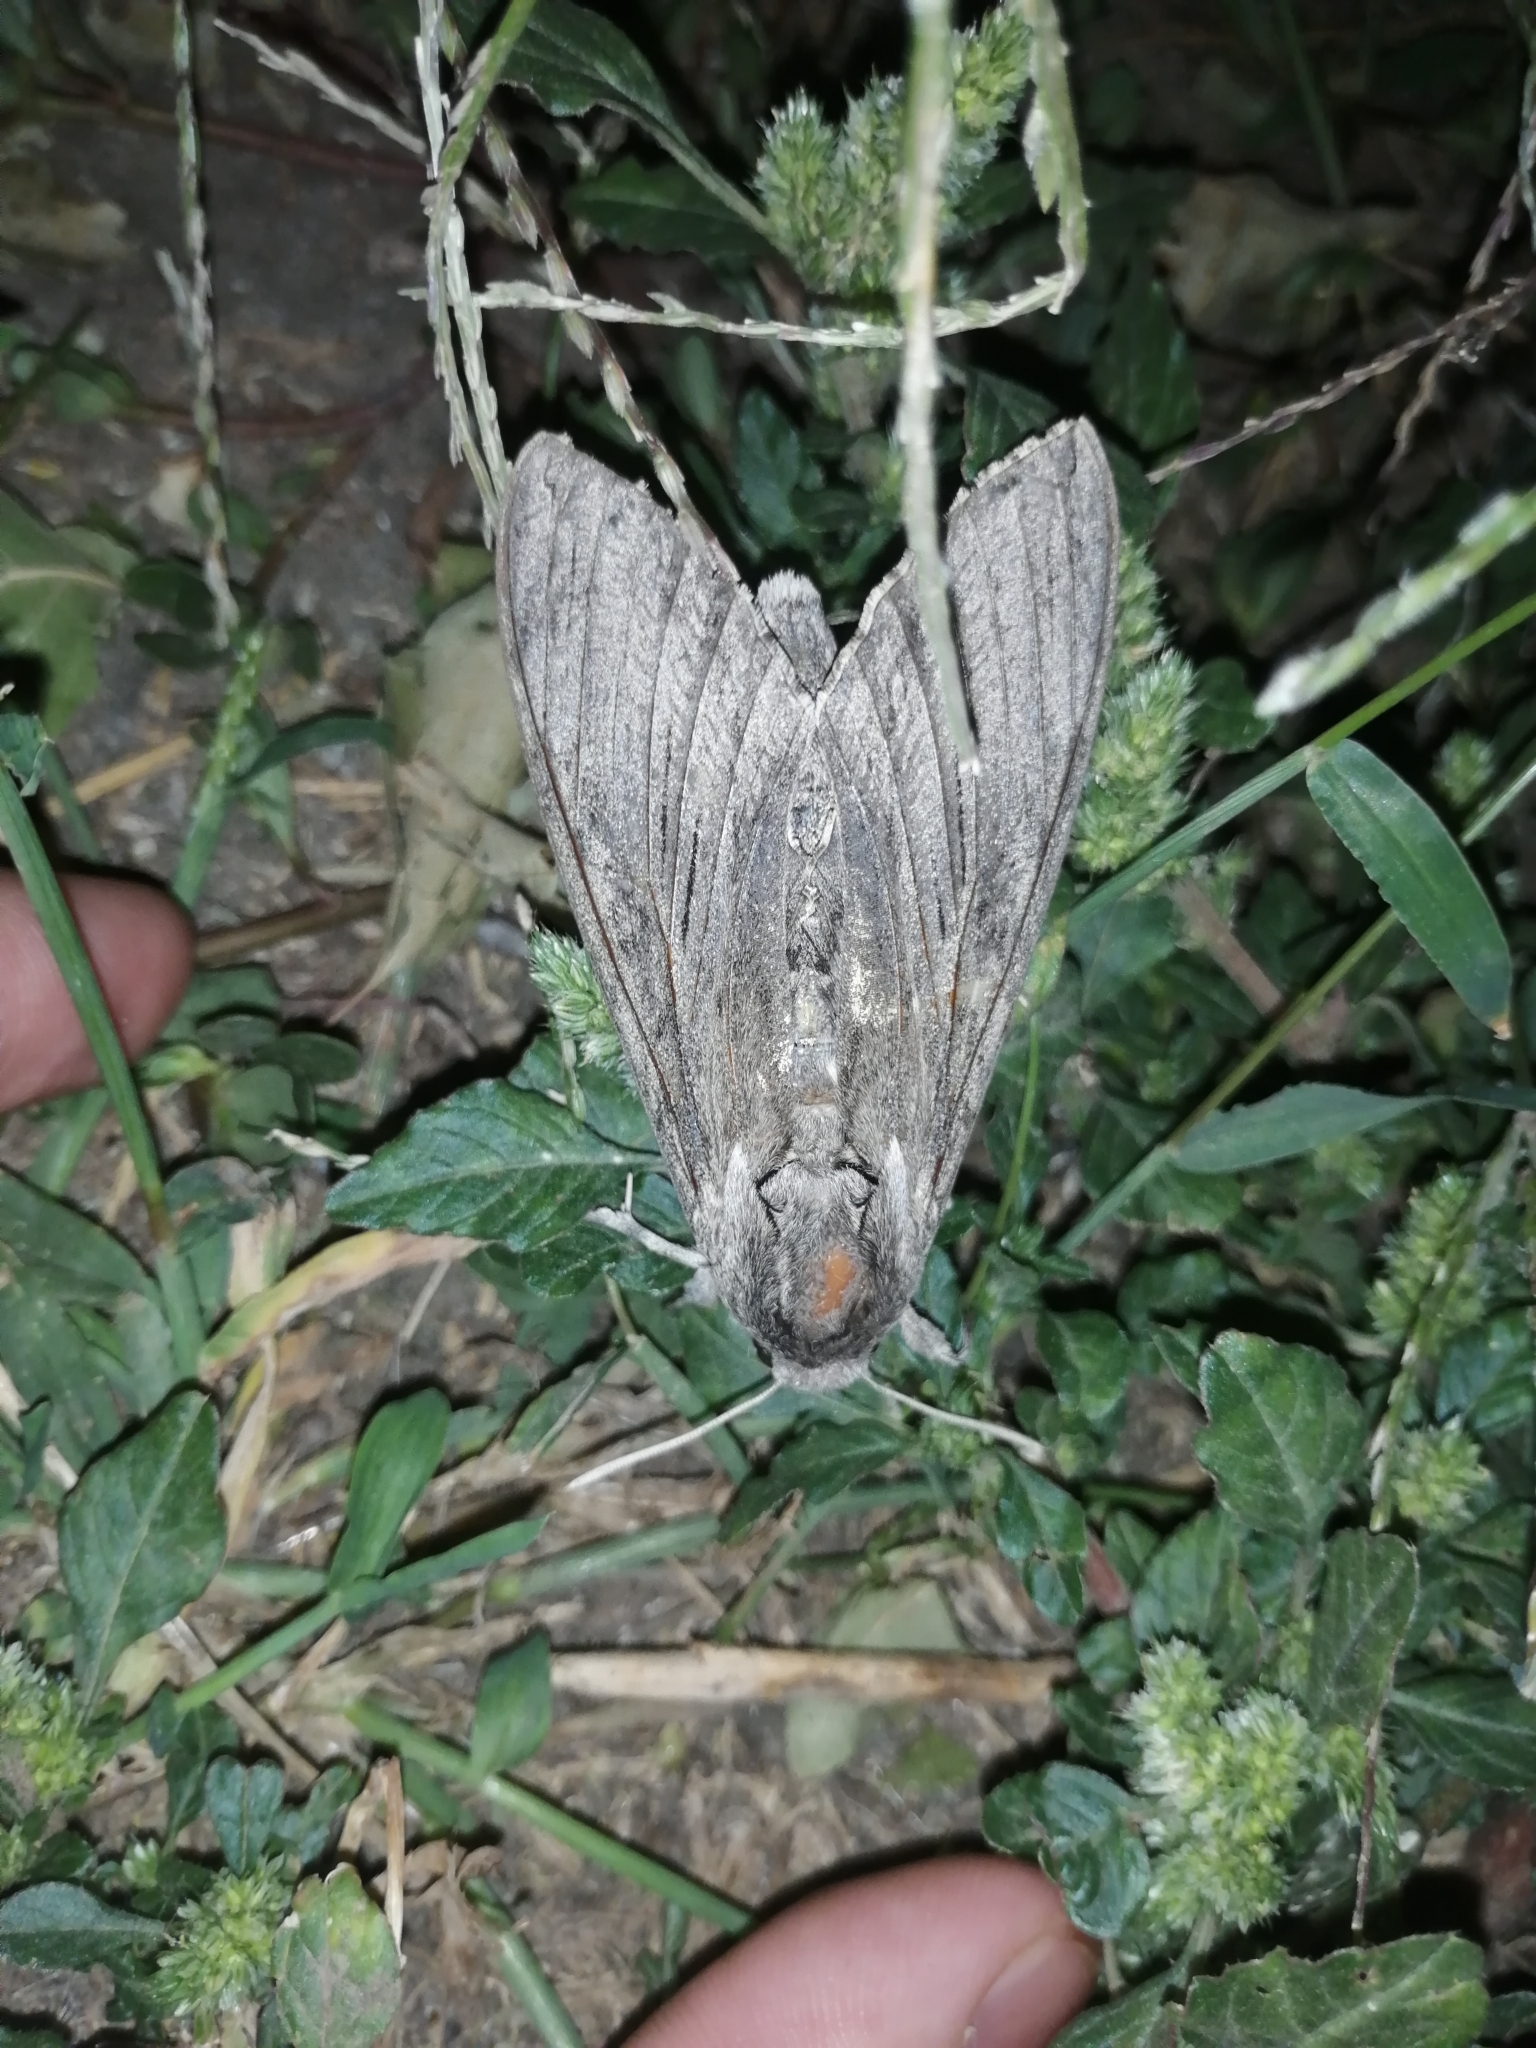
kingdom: Animalia
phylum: Arthropoda
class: Insecta
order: Lepidoptera
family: Sphingidae
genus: Agrius
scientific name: Agrius convolvuli
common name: Convolvulus hawkmoth
